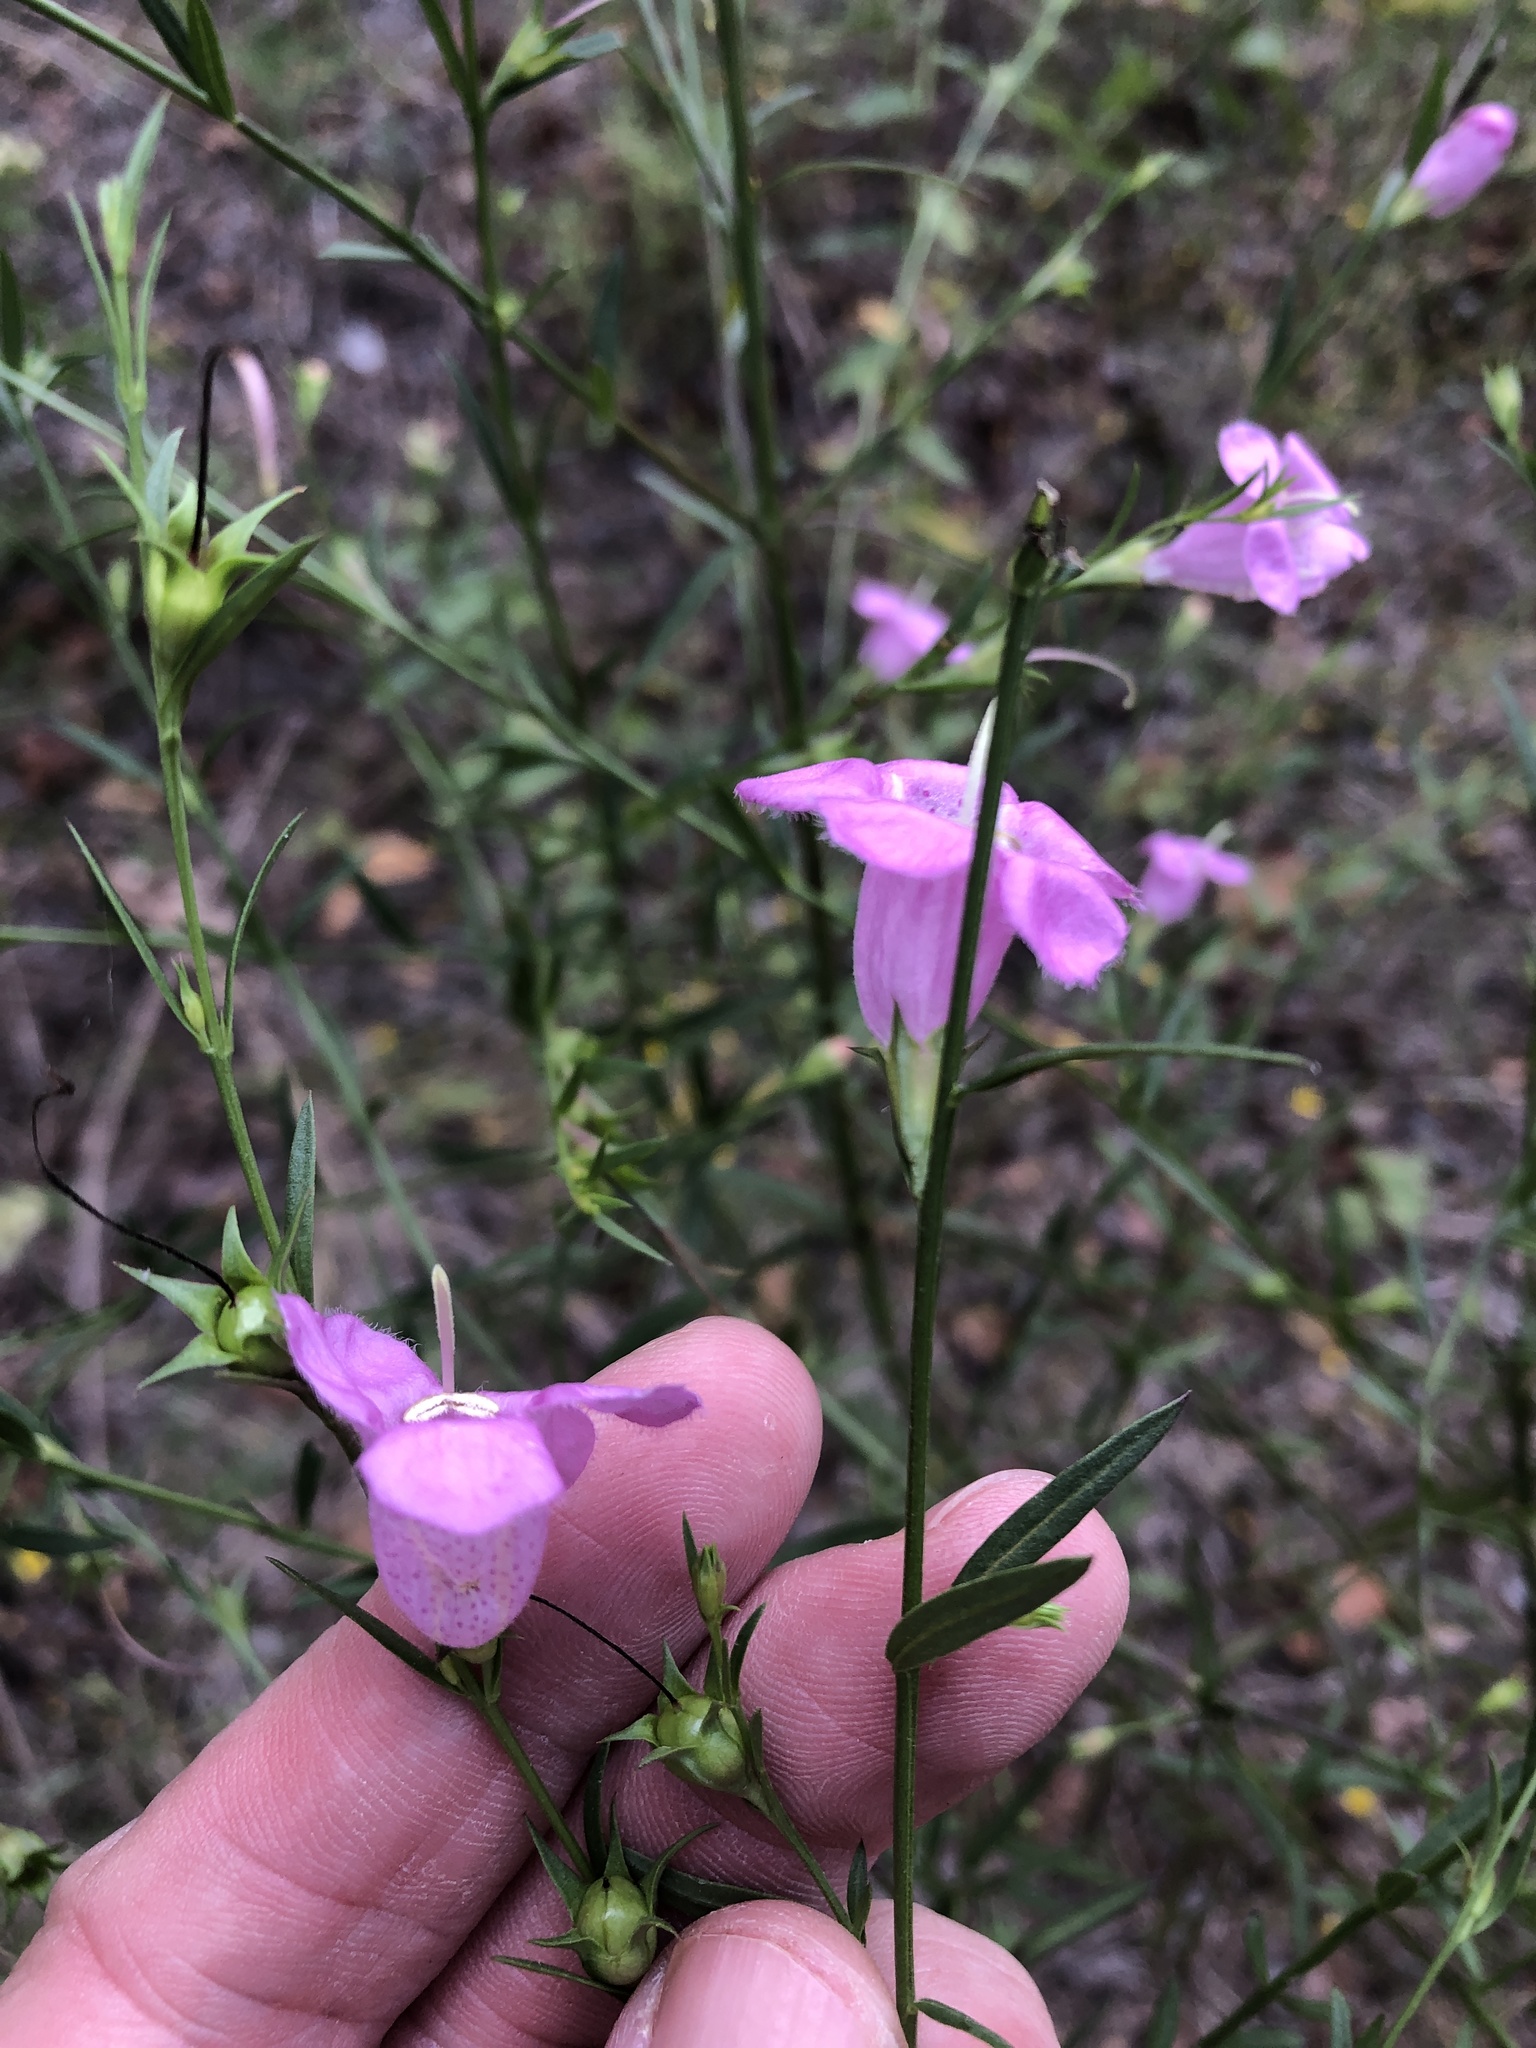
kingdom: Plantae
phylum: Tracheophyta
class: Magnoliopsida
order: Lamiales
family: Orobanchaceae
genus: Agalinis
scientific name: Agalinis heterophylla
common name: Prairie agalinis
